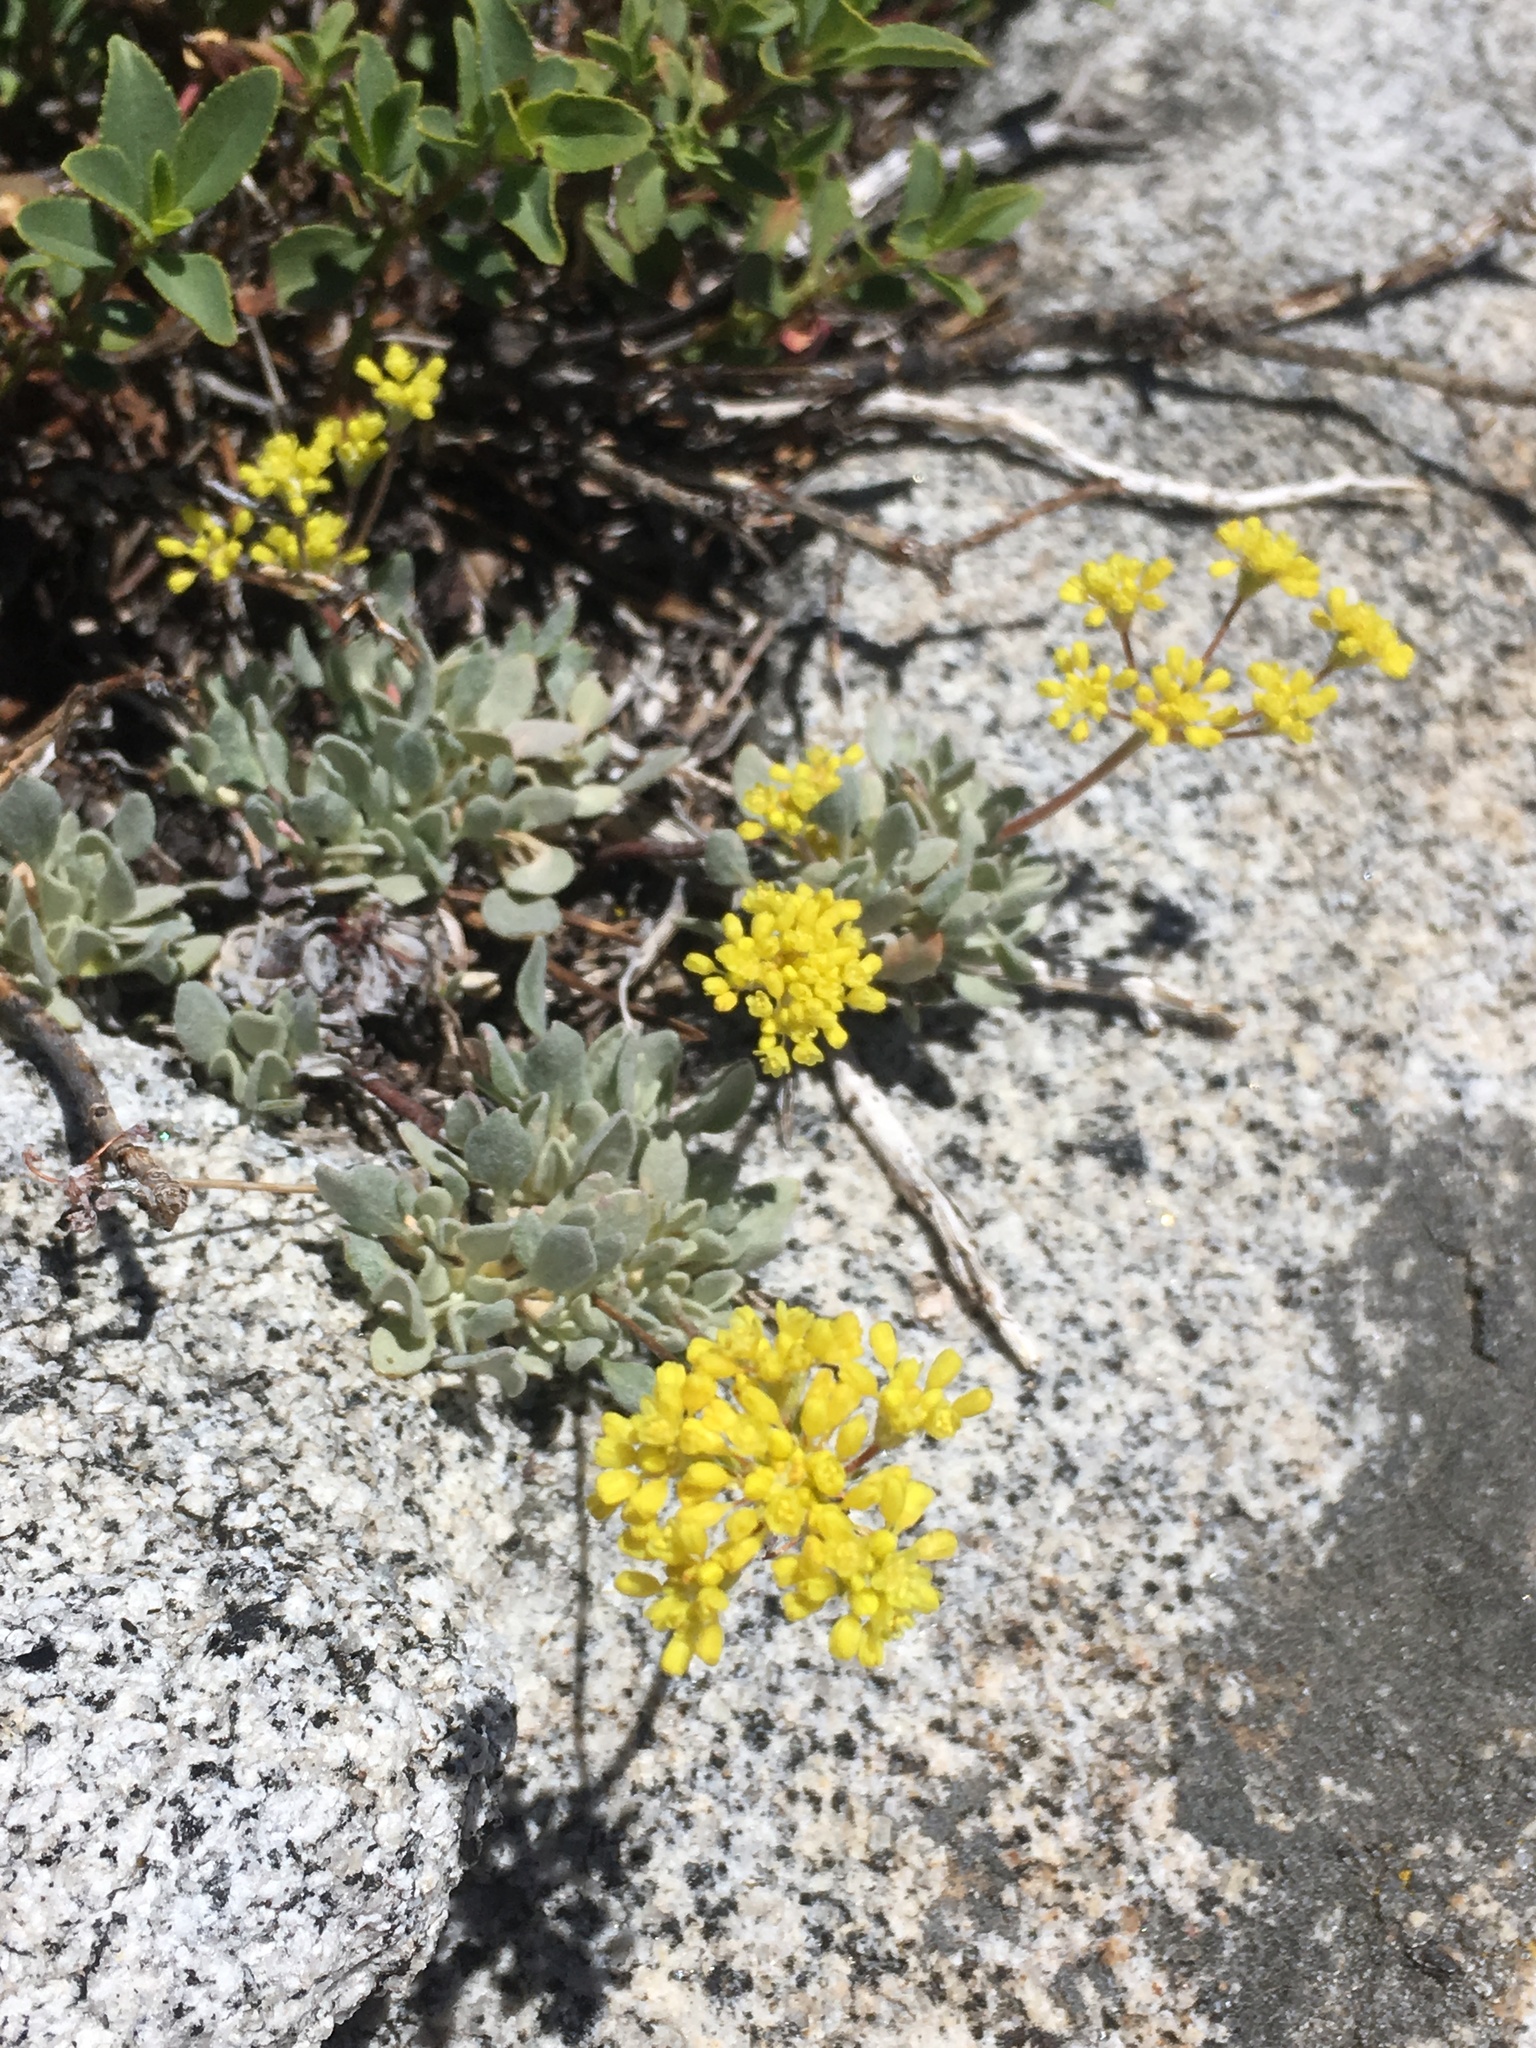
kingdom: Plantae
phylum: Tracheophyta
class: Magnoliopsida
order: Caryophyllales
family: Polygonaceae
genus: Eriogonum
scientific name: Eriogonum incanum
